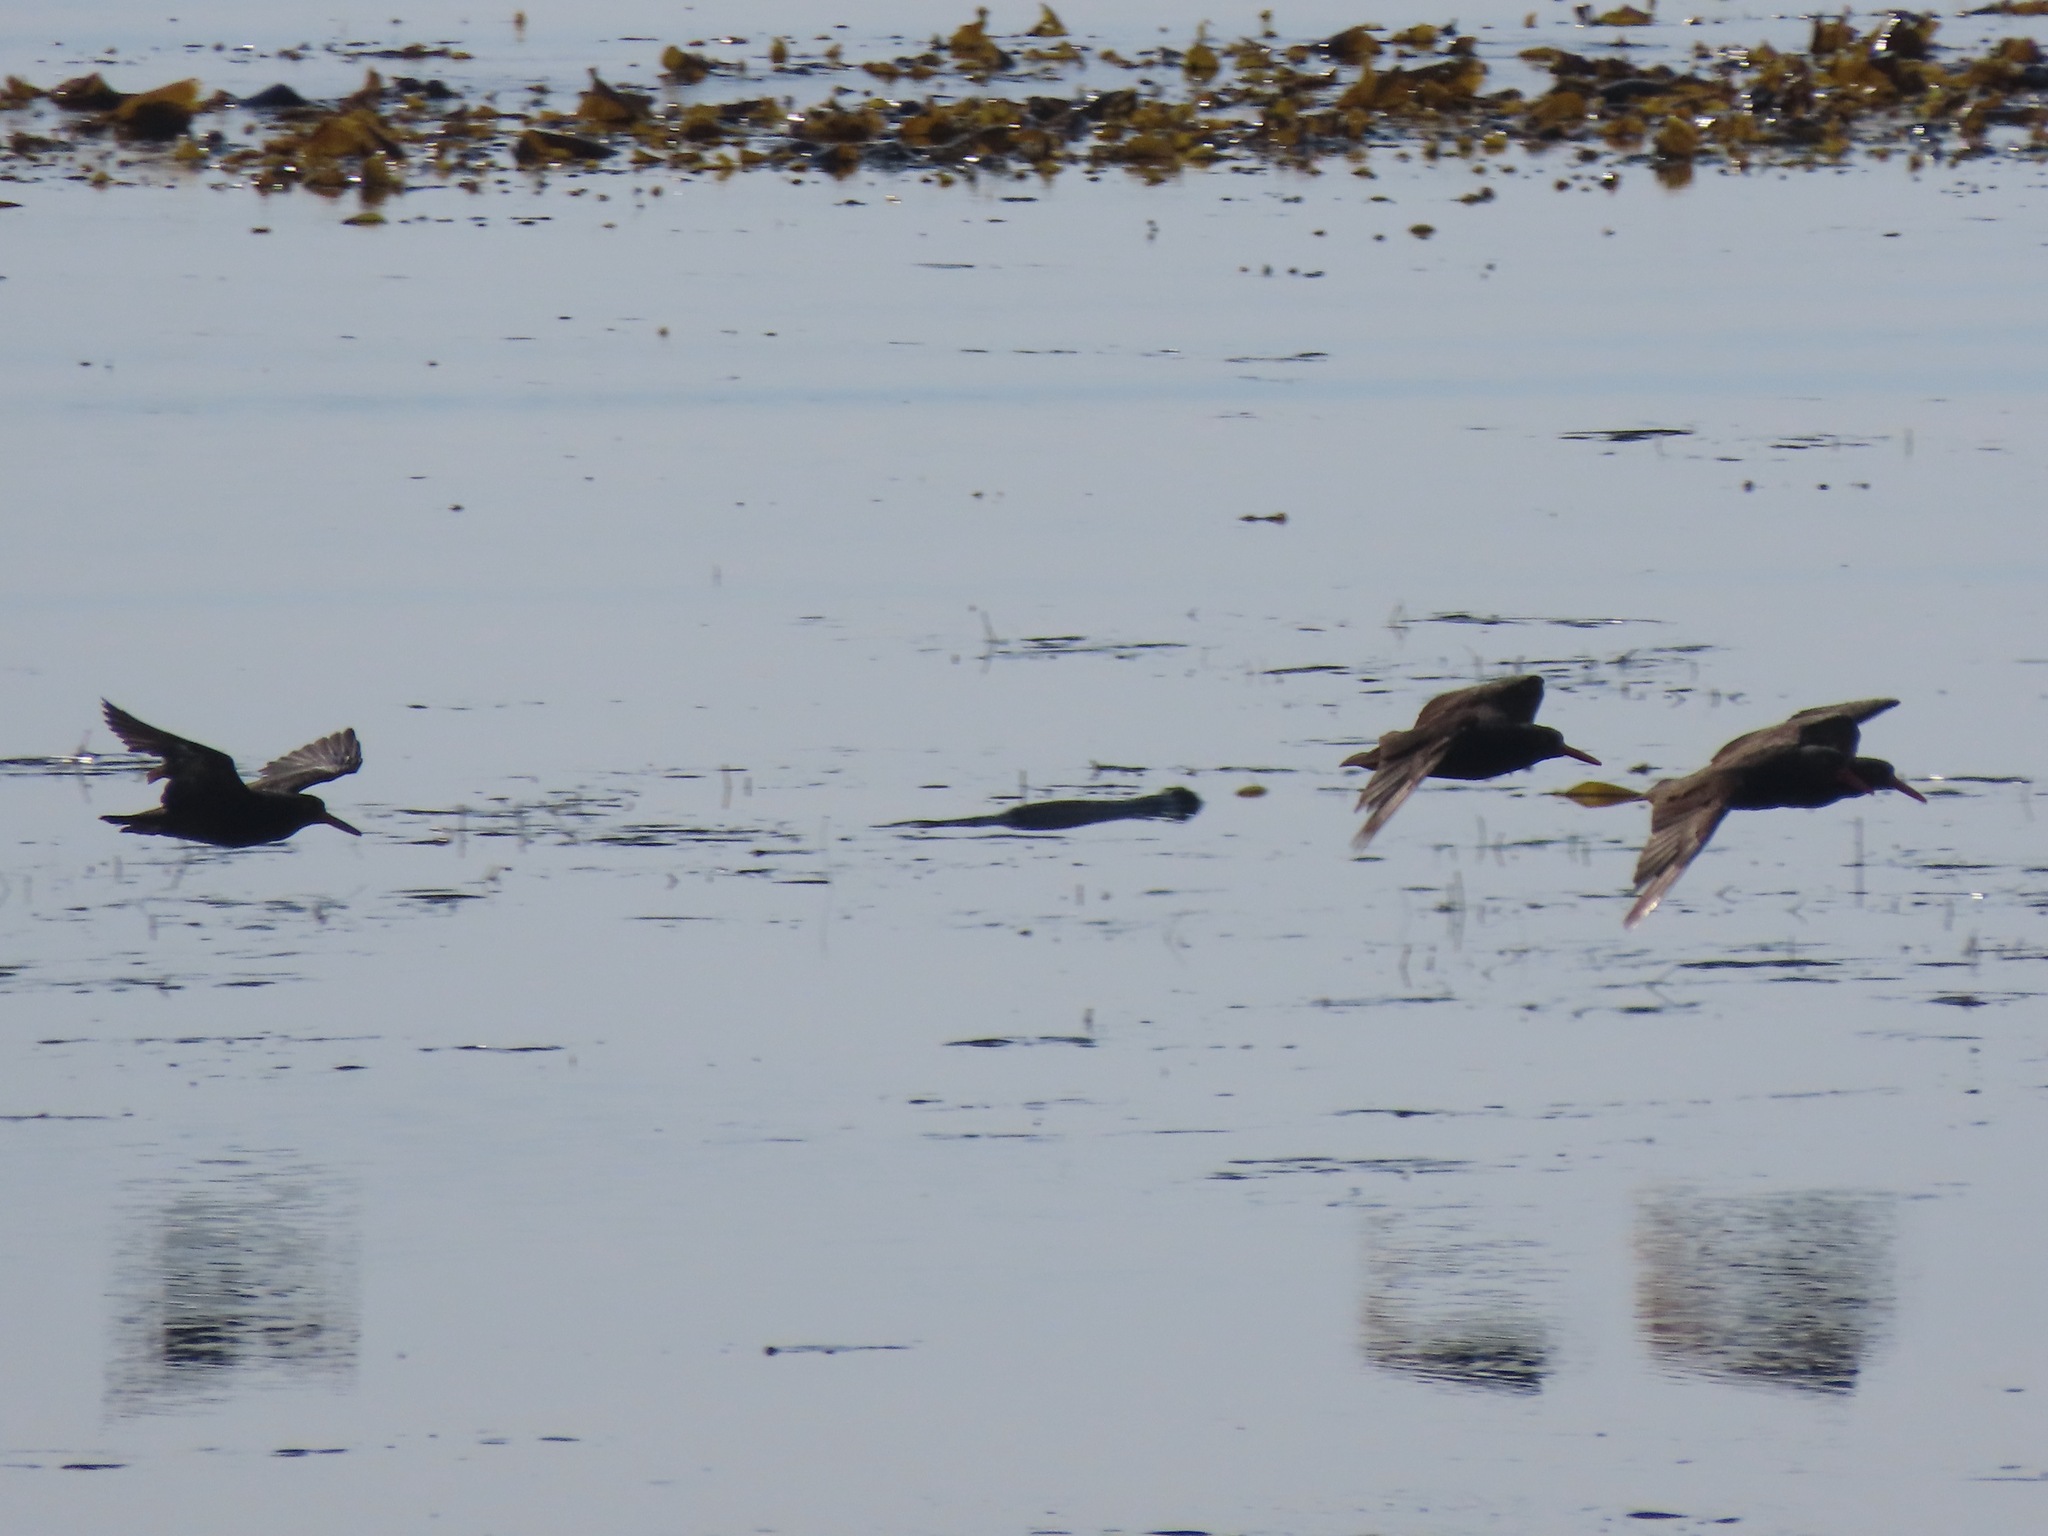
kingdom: Animalia
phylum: Chordata
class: Aves
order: Charadriiformes
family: Haematopodidae
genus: Haematopus
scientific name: Haematopus bachmani
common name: Black oystercatcher
